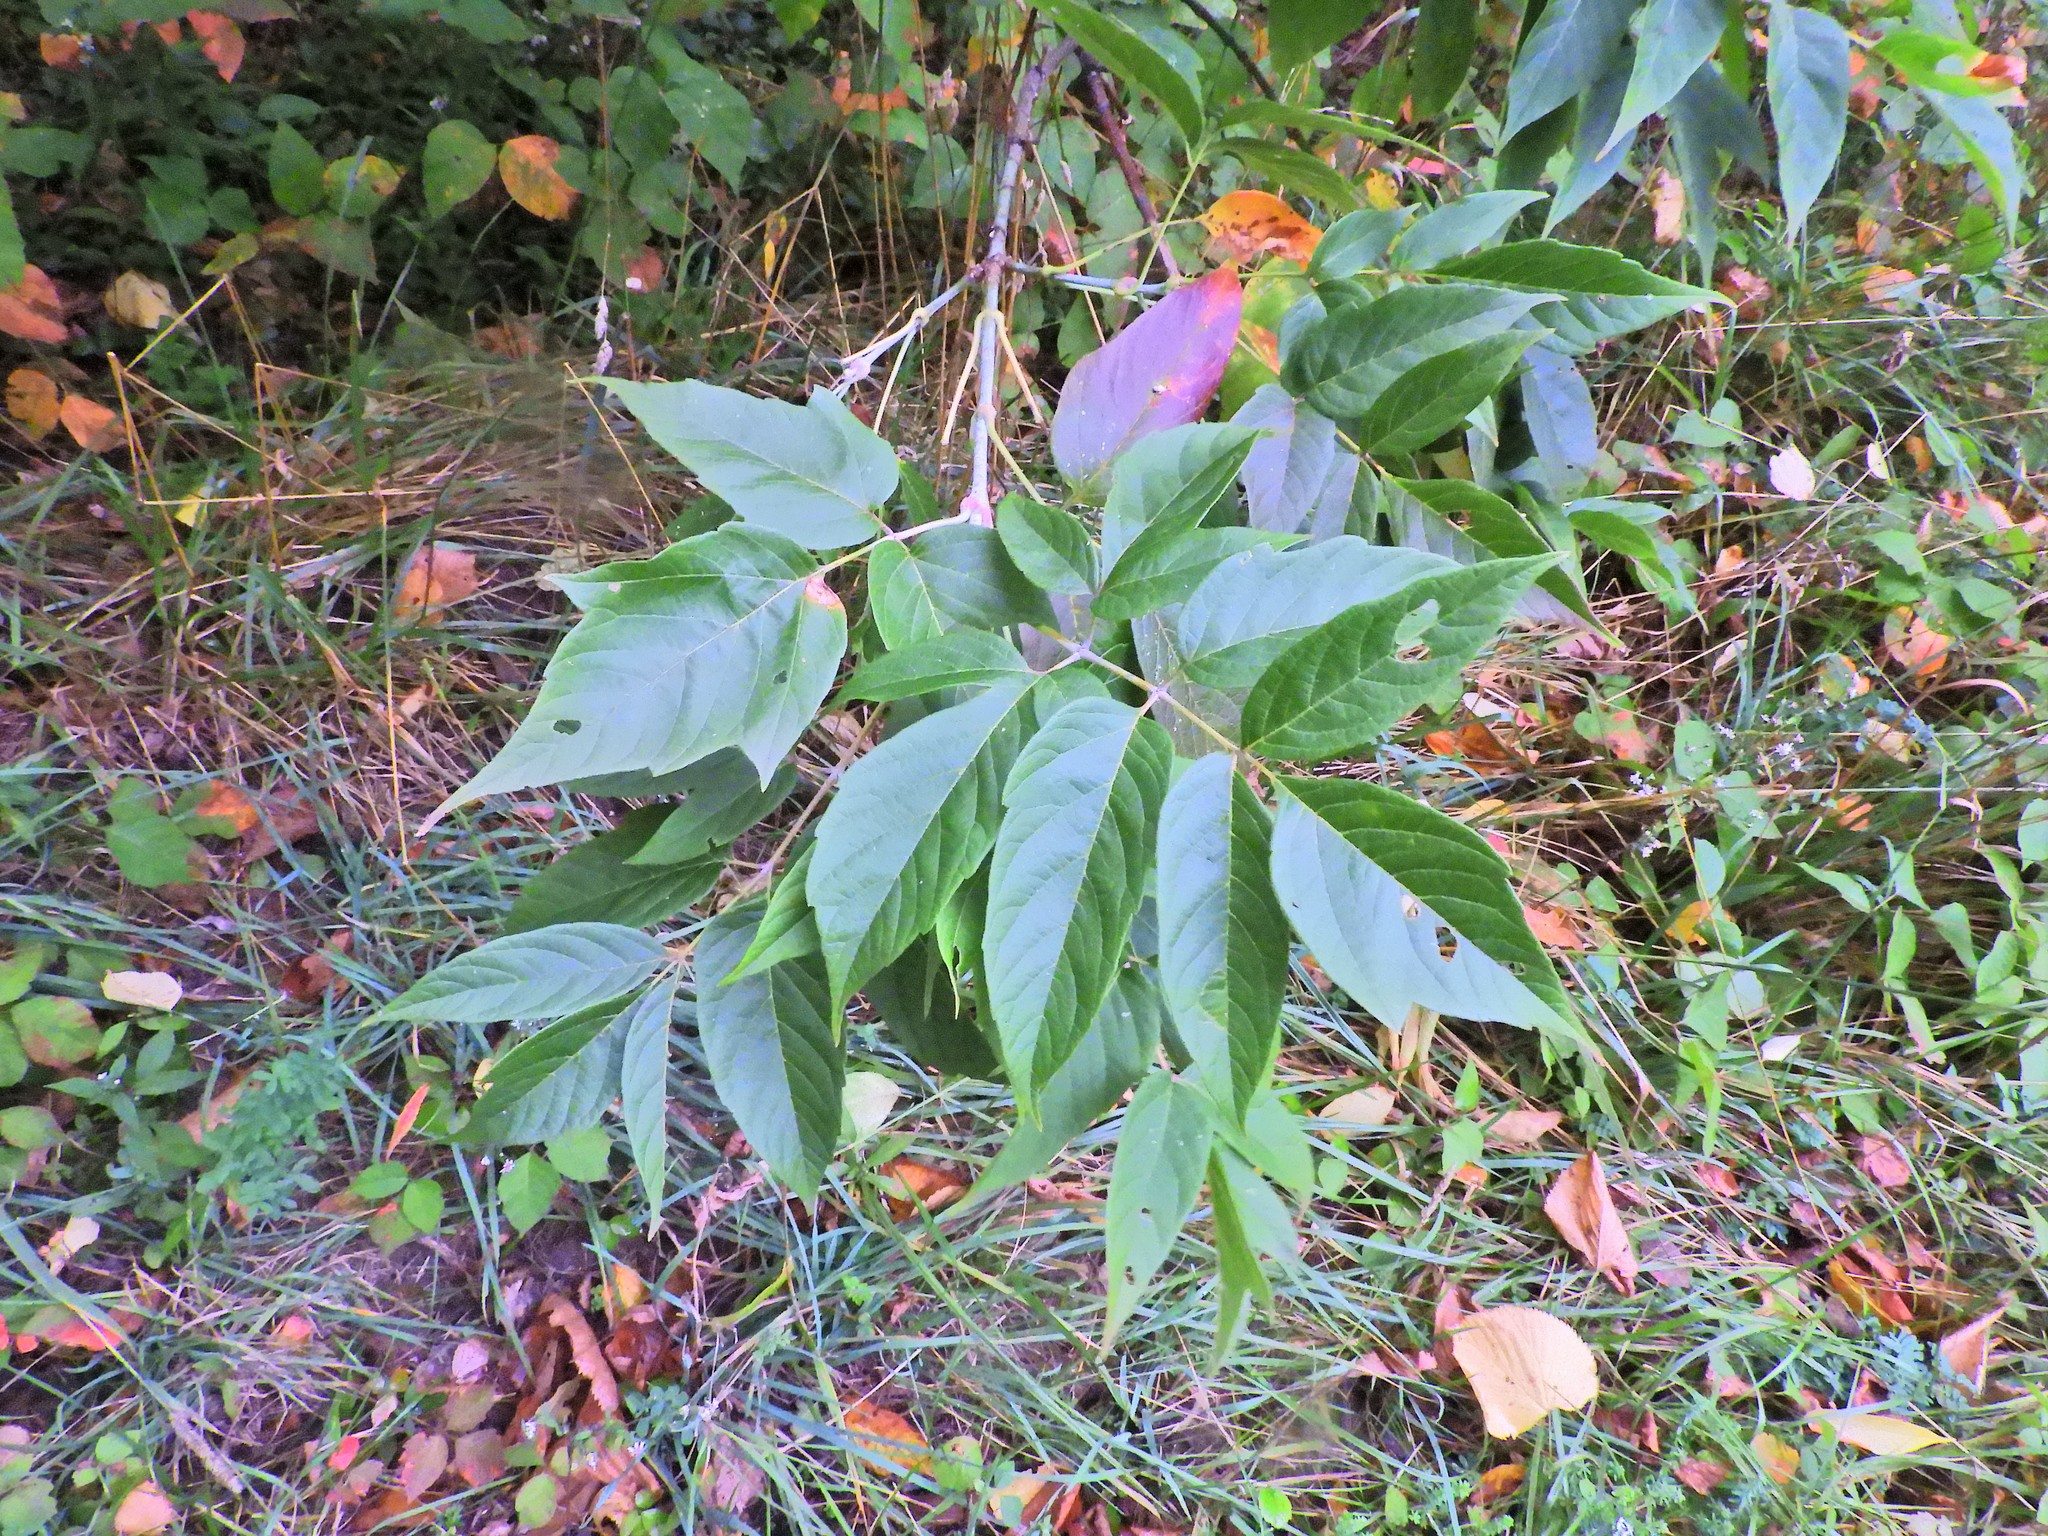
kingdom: Plantae
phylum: Tracheophyta
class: Magnoliopsida
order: Sapindales
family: Sapindaceae
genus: Acer
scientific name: Acer negundo
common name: Ashleaf maple
